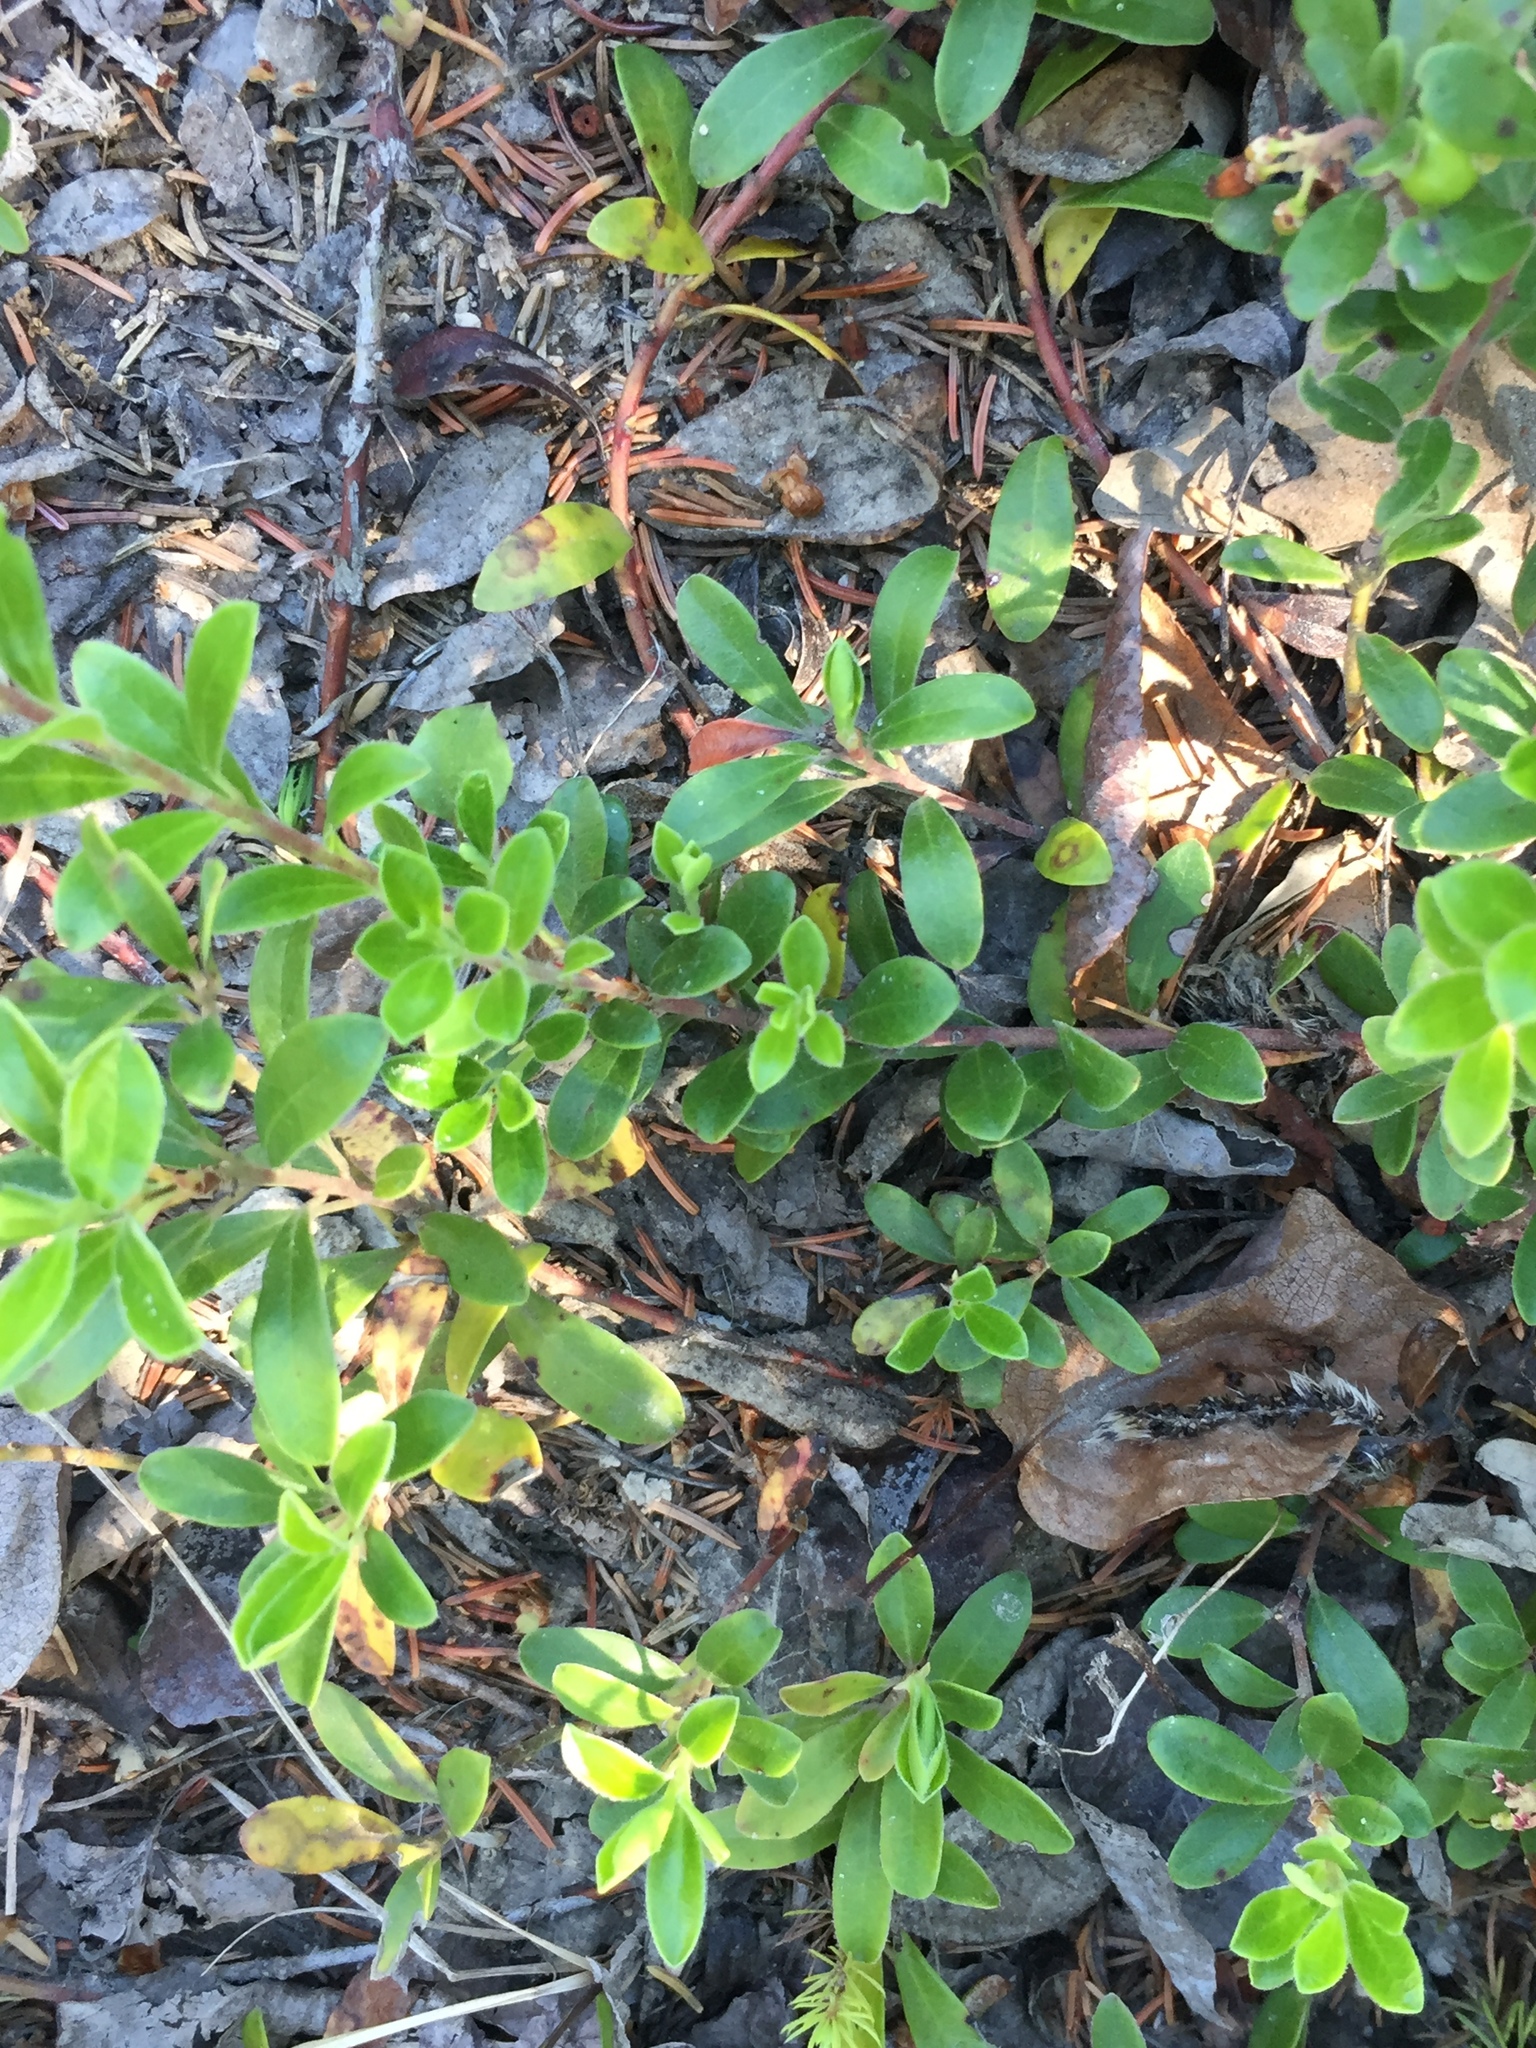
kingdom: Plantae
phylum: Tracheophyta
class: Magnoliopsida
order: Ericales
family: Ericaceae
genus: Arctostaphylos
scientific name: Arctostaphylos uva-ursi
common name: Bearberry
